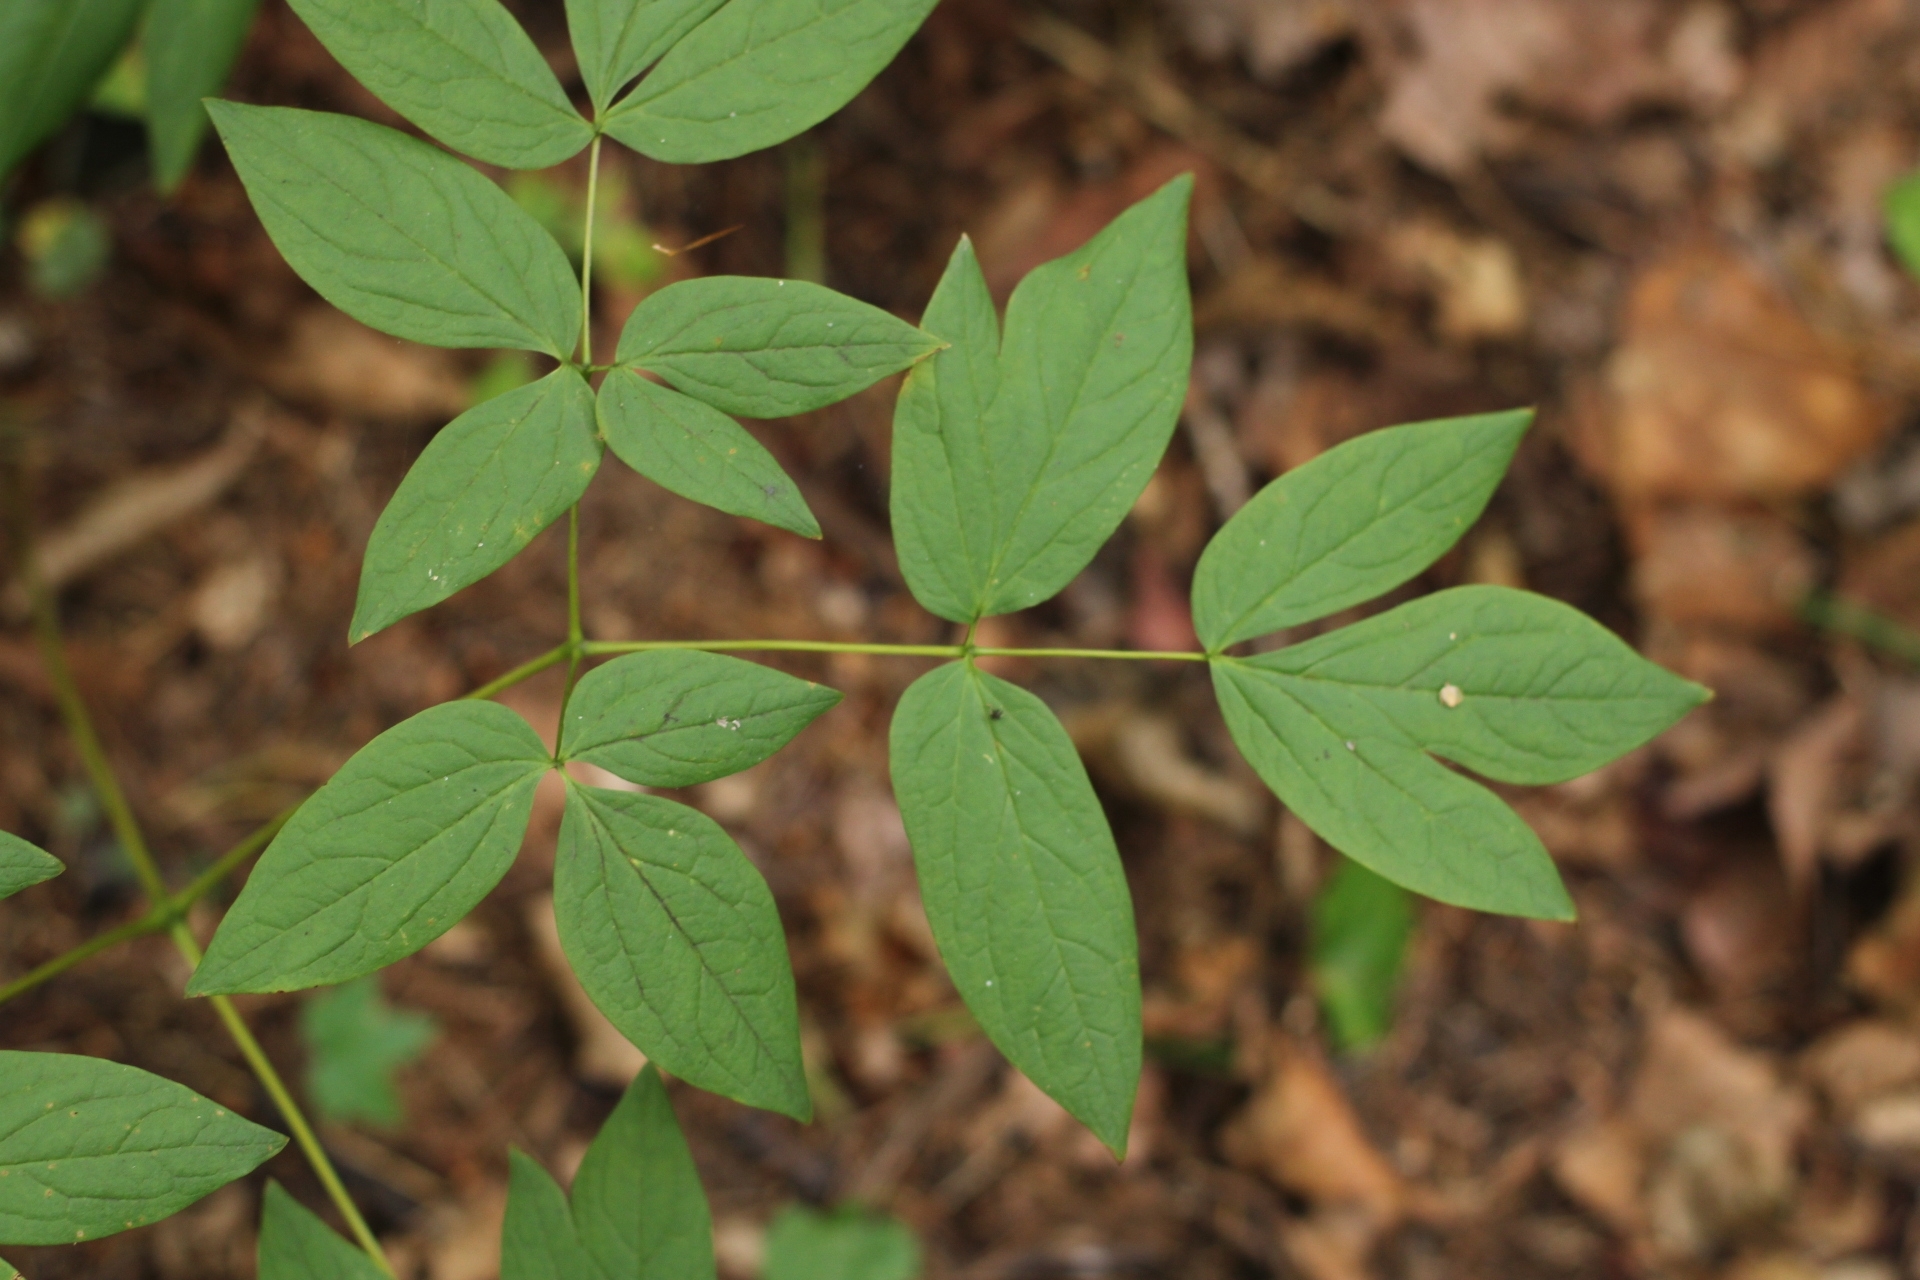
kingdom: Plantae
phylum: Tracheophyta
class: Magnoliopsida
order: Ranunculales
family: Berberidaceae
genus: Caulophyllum
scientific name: Caulophyllum robustum
